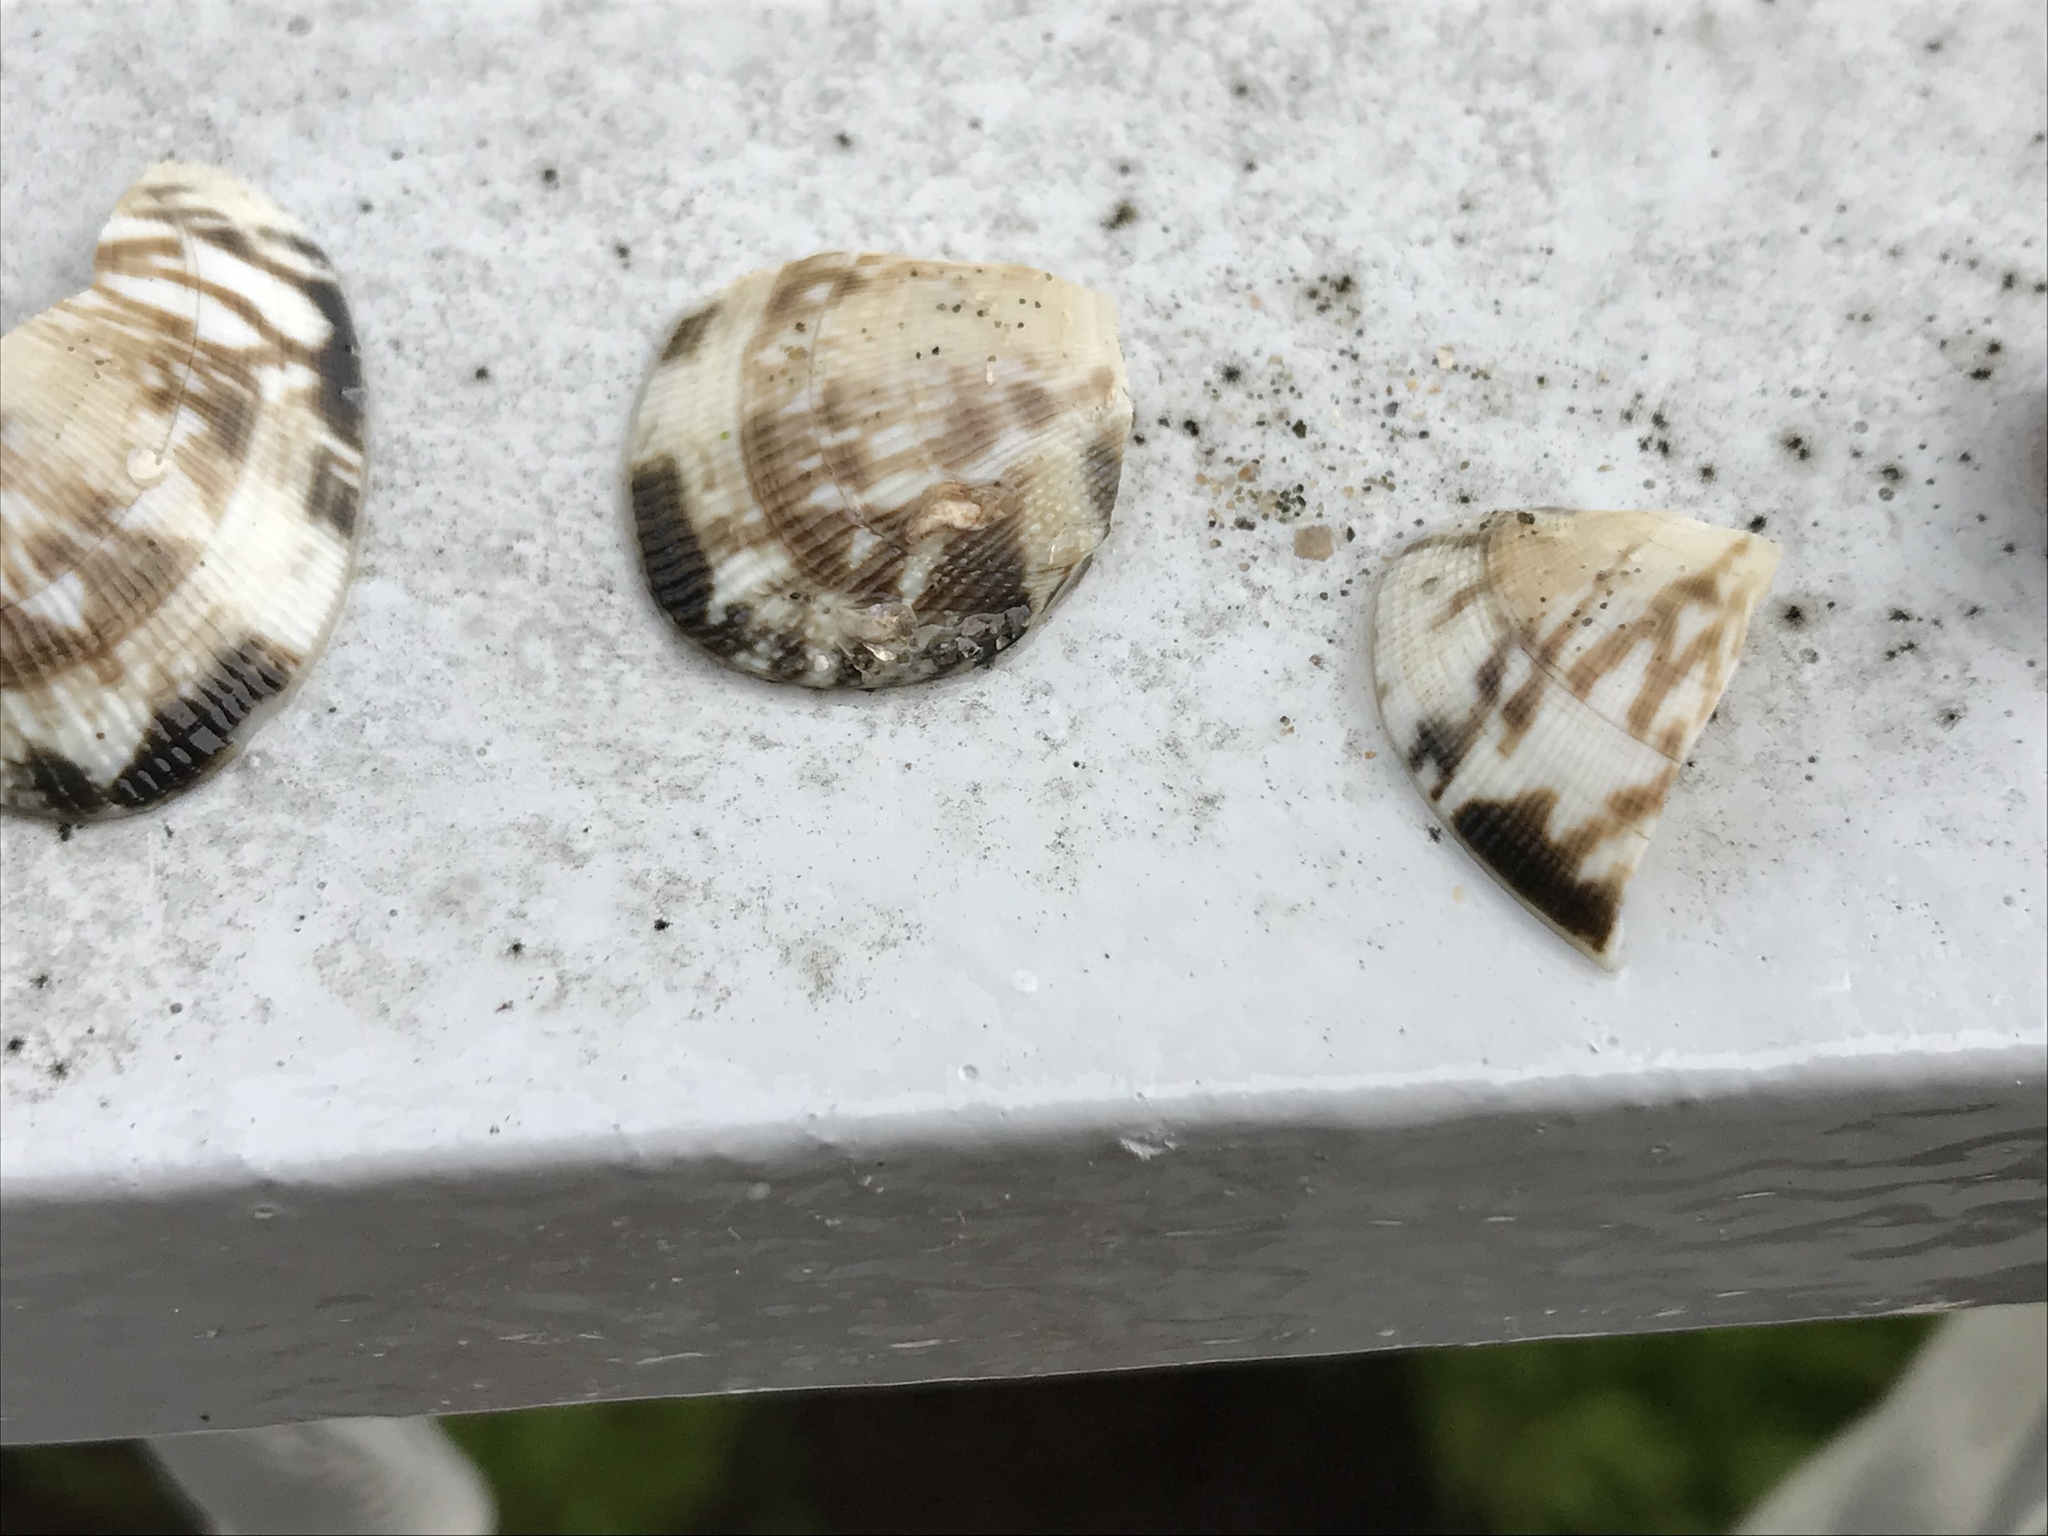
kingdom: Animalia
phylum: Mollusca
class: Bivalvia
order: Venerida
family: Veneridae
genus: Ruditapes
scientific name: Ruditapes philippinarum
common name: Manila clam
